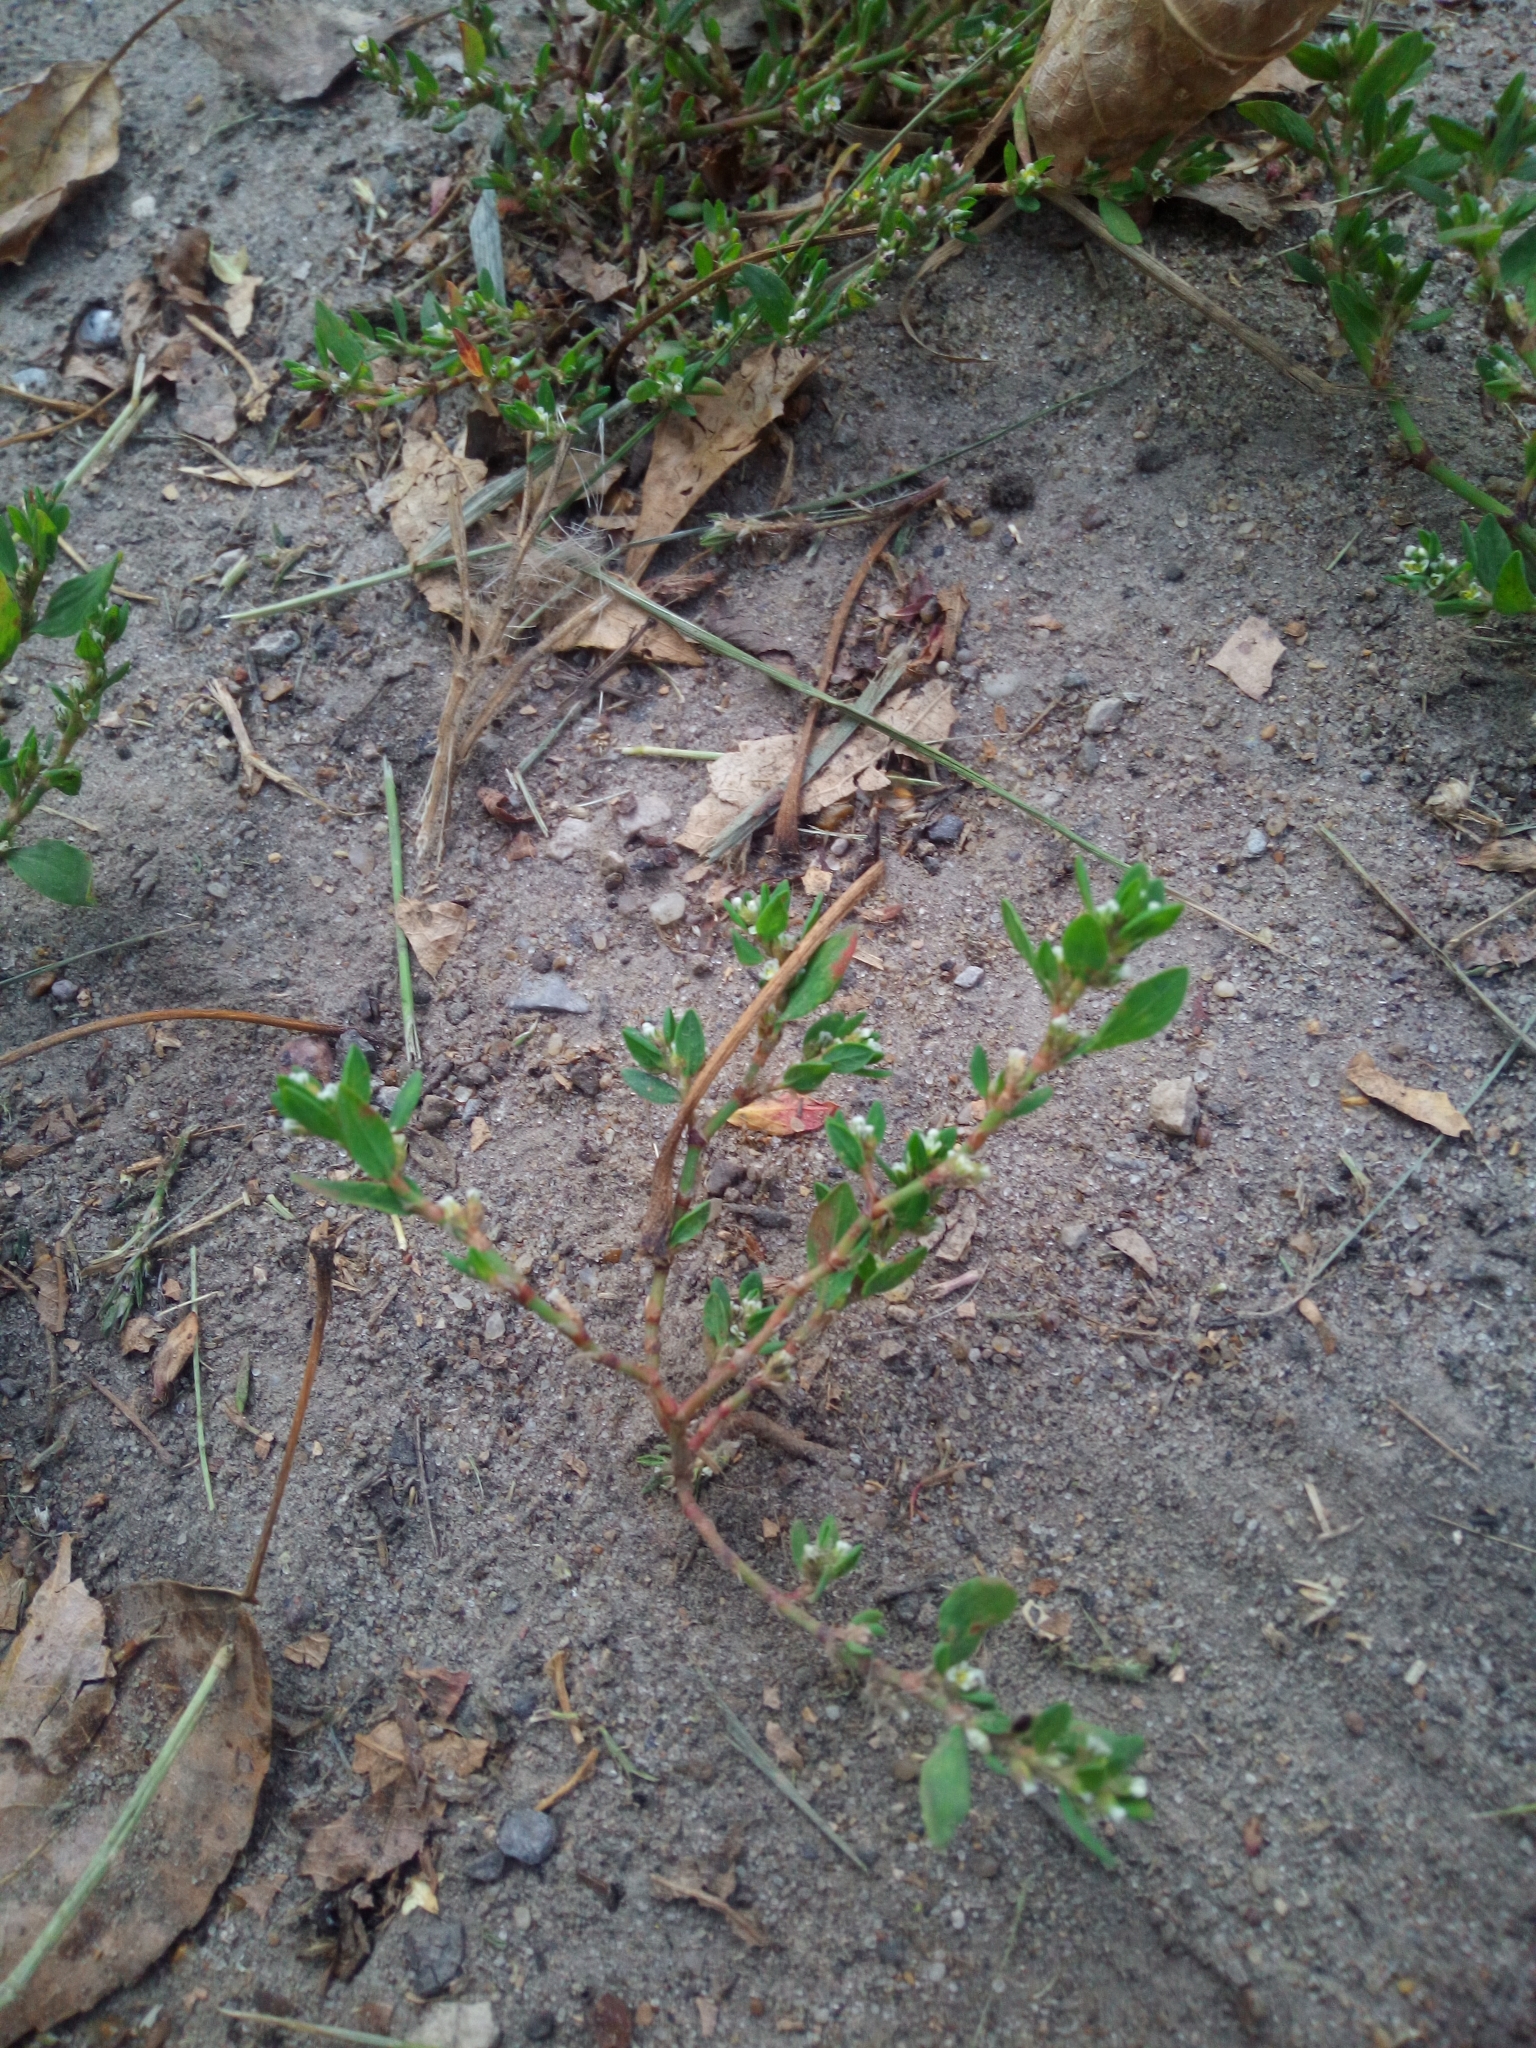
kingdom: Plantae
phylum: Tracheophyta
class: Magnoliopsida
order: Caryophyllales
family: Polygonaceae
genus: Polygonum
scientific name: Polygonum aviculare
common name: Prostrate knotweed
